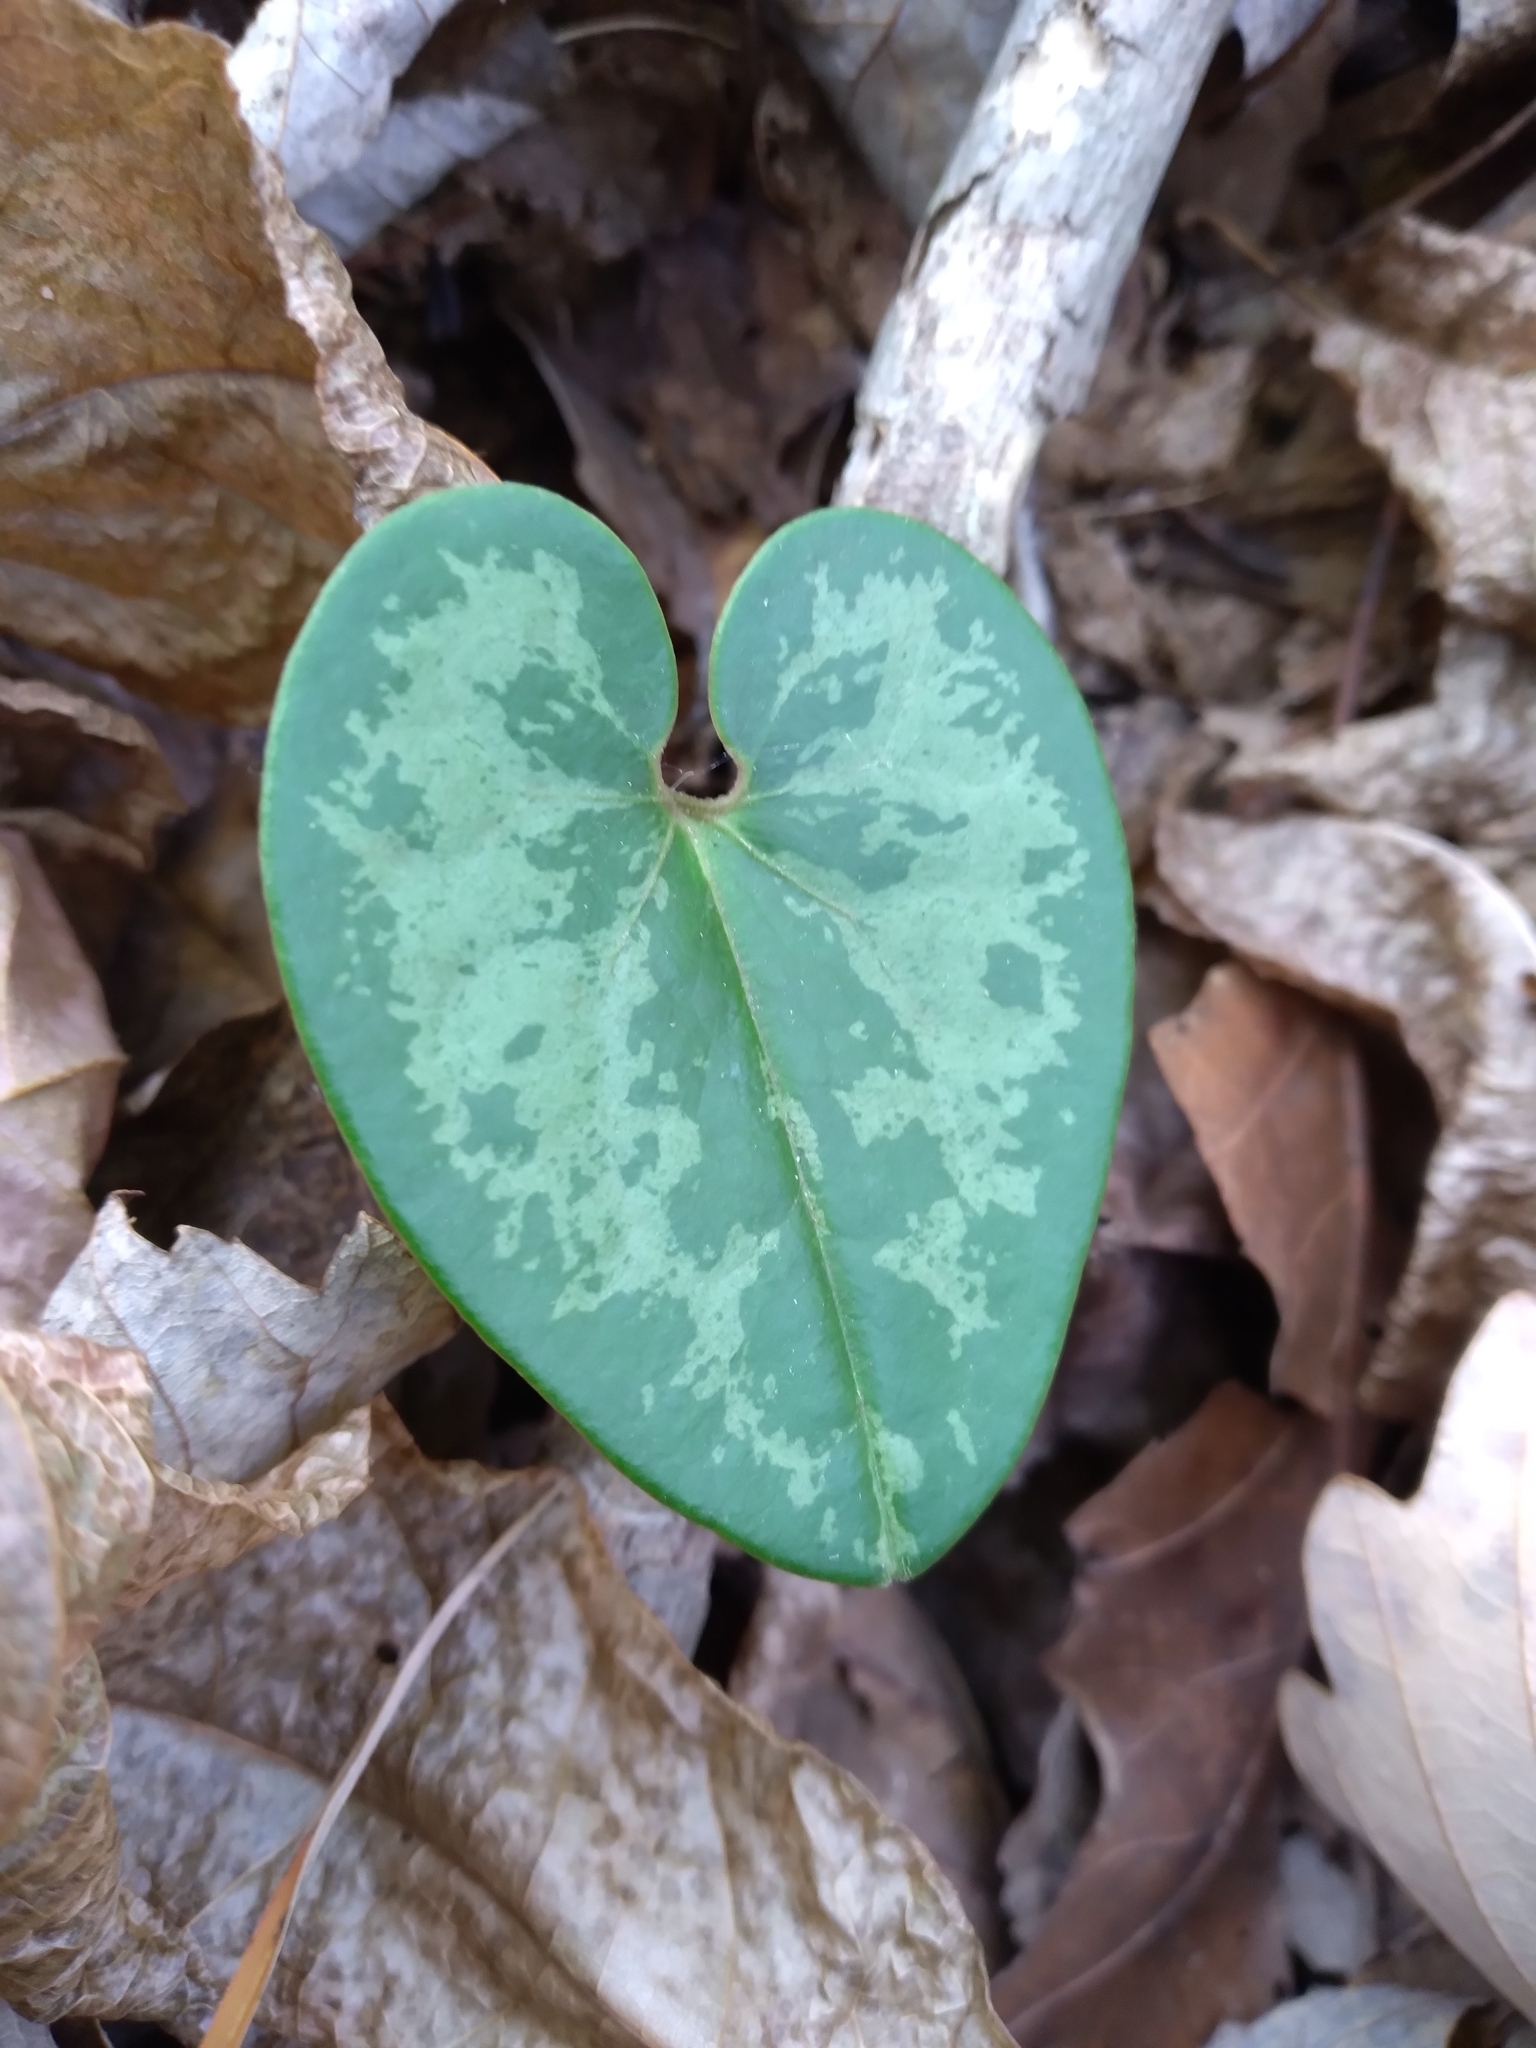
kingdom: Plantae
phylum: Tracheophyta
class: Magnoliopsida
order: Piperales
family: Aristolochiaceae
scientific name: Aristolochiaceae
